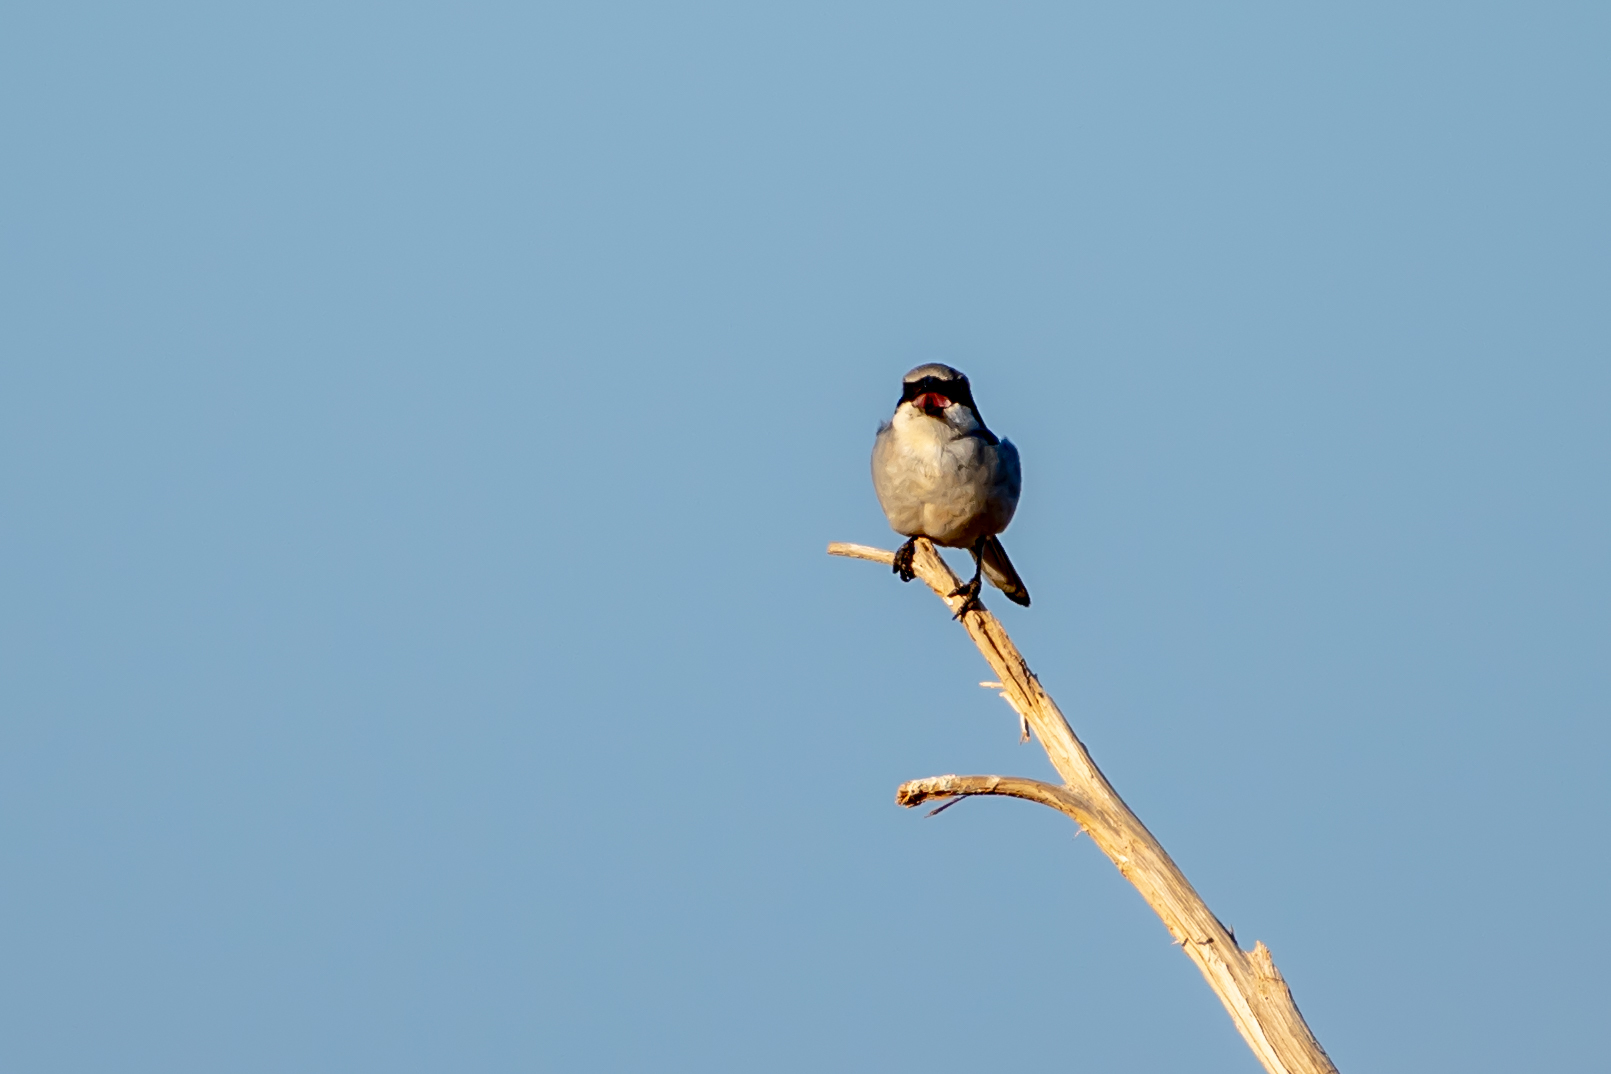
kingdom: Animalia
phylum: Chordata
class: Aves
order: Passeriformes
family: Laniidae
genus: Lanius
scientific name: Lanius excubitor
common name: Great grey shrike
